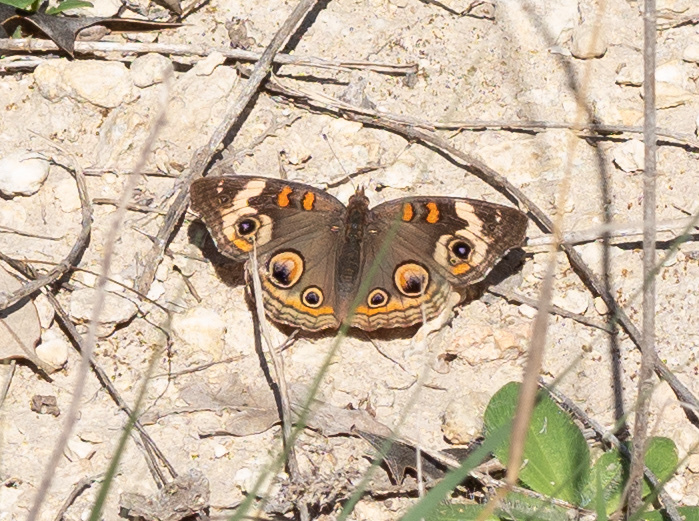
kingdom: Animalia
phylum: Arthropoda
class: Insecta
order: Lepidoptera
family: Nymphalidae
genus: Junonia
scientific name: Junonia coenia
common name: Common buckeye
